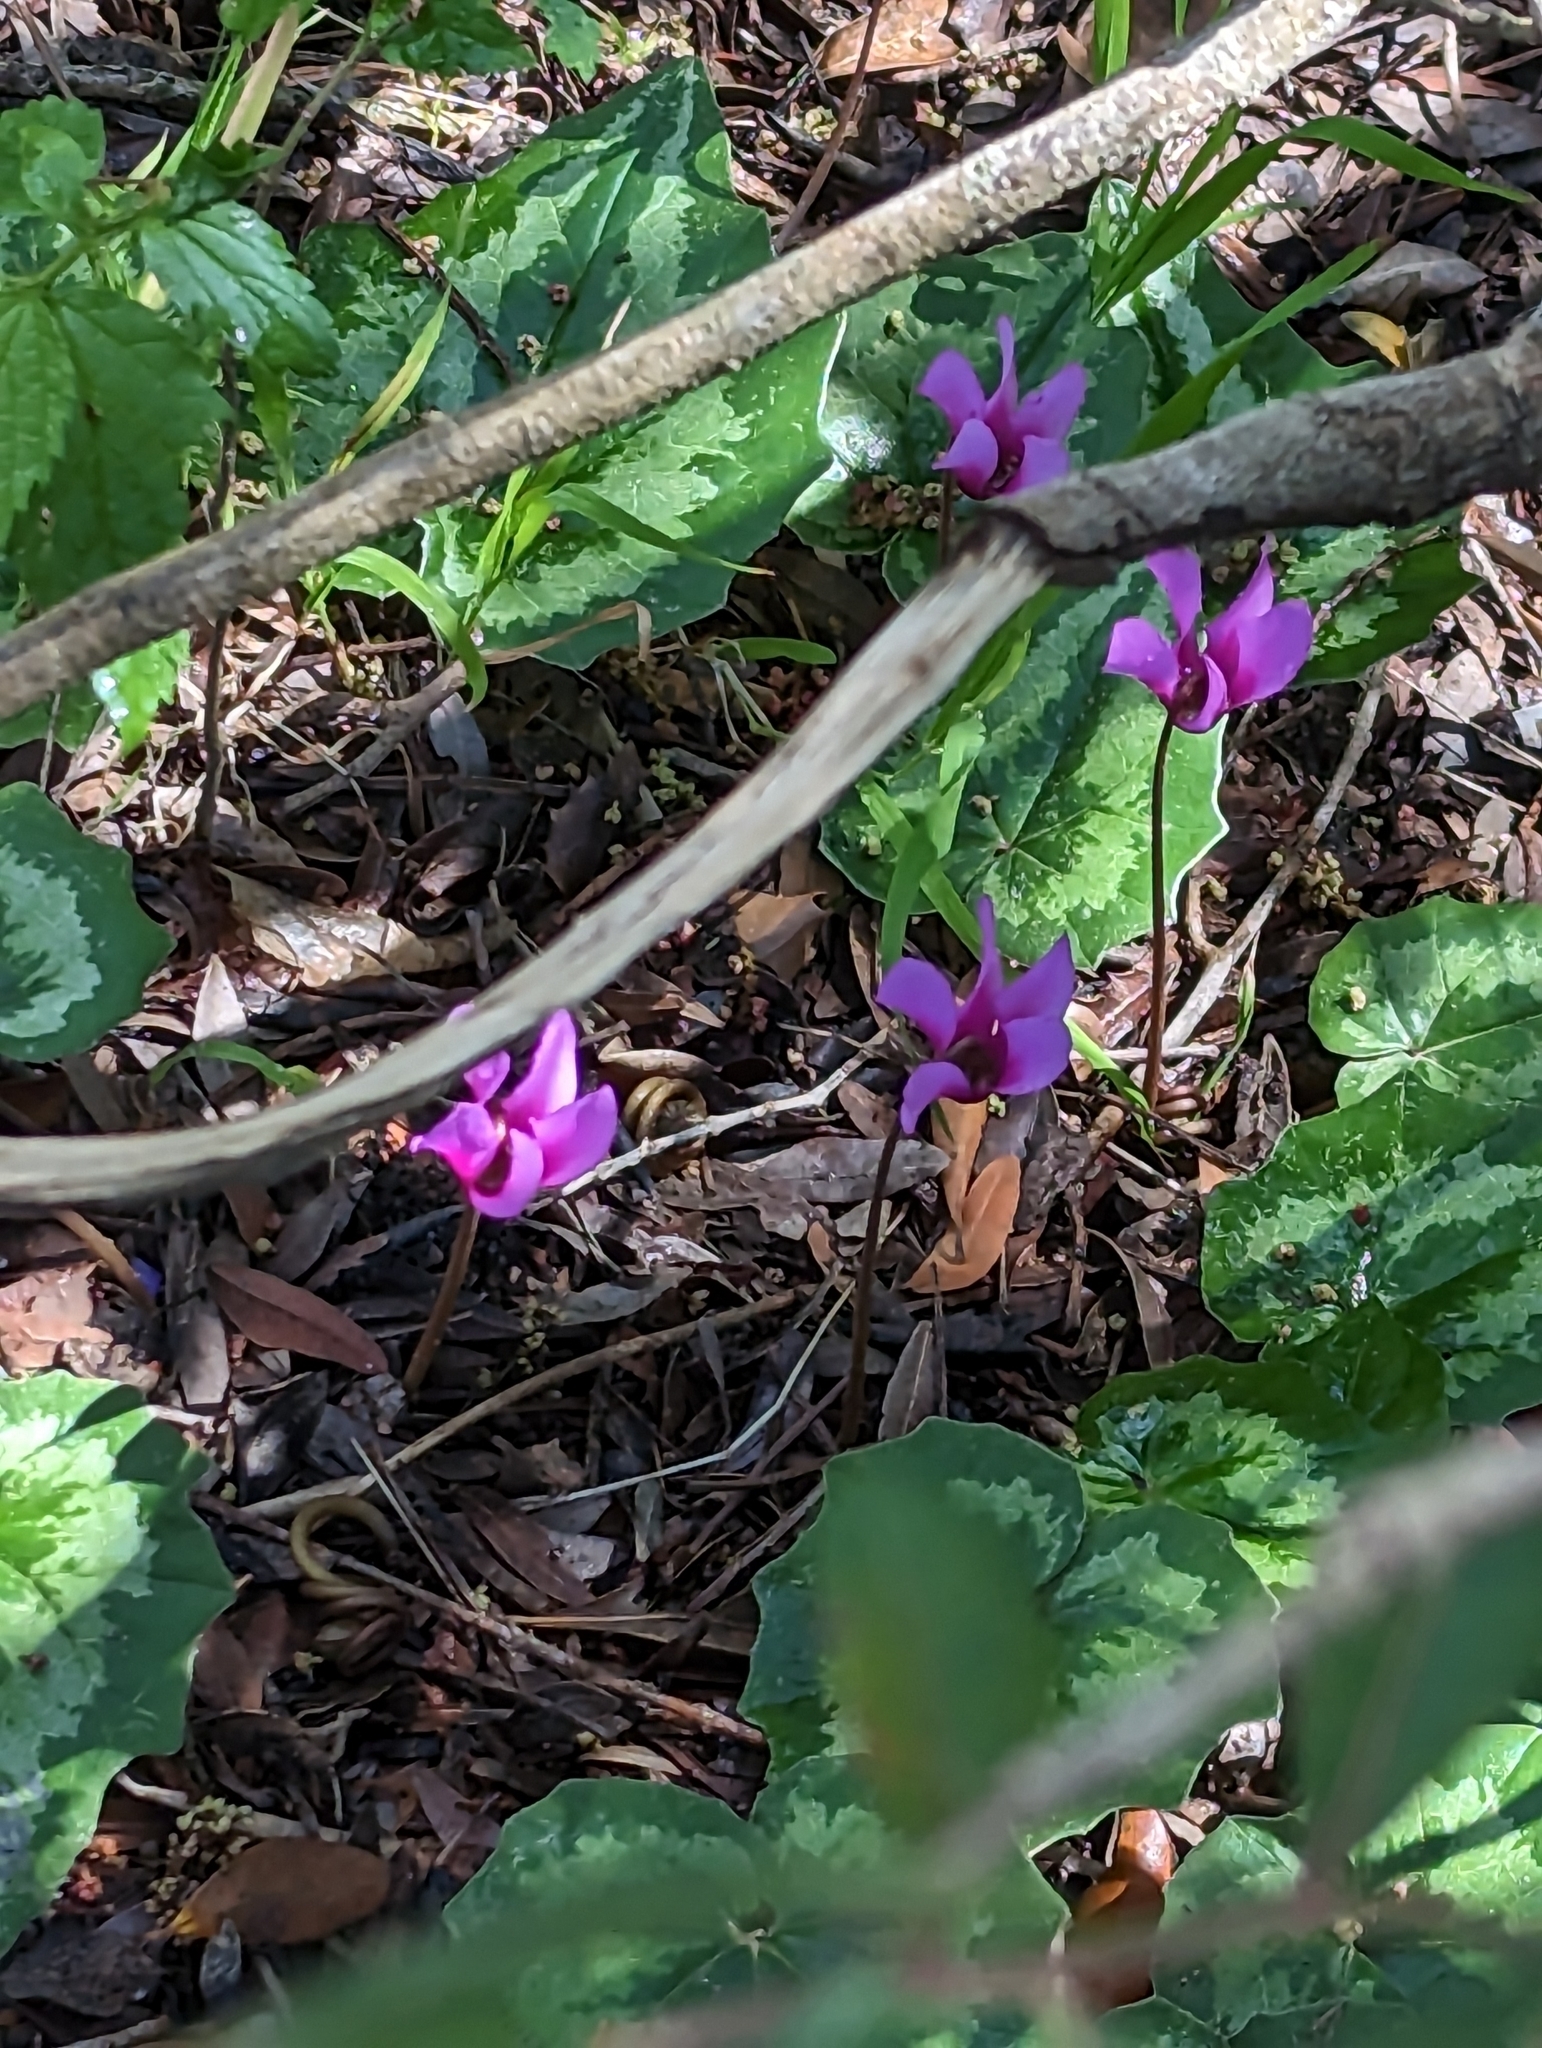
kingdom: Plantae
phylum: Tracheophyta
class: Magnoliopsida
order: Ericales
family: Primulaceae
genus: Cyclamen
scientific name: Cyclamen repandum
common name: Spring sowbread
